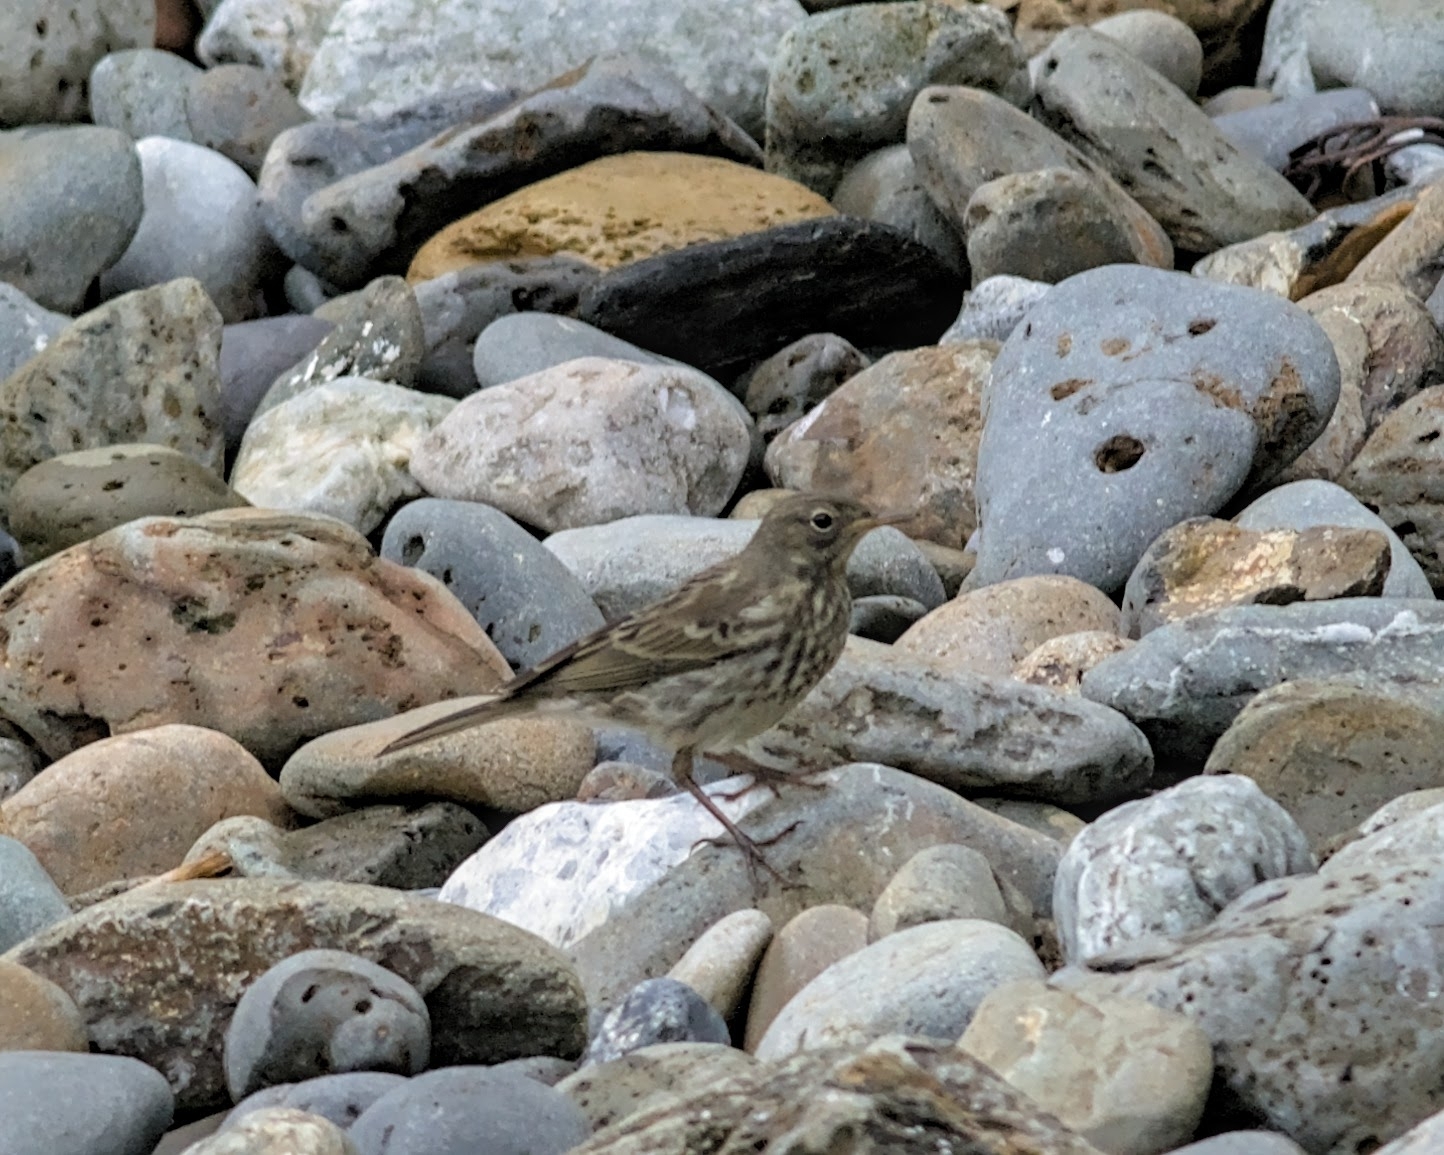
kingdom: Animalia
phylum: Chordata
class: Aves
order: Passeriformes
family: Motacillidae
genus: Anthus
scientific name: Anthus petrosus
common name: Eurasian rock pipit
